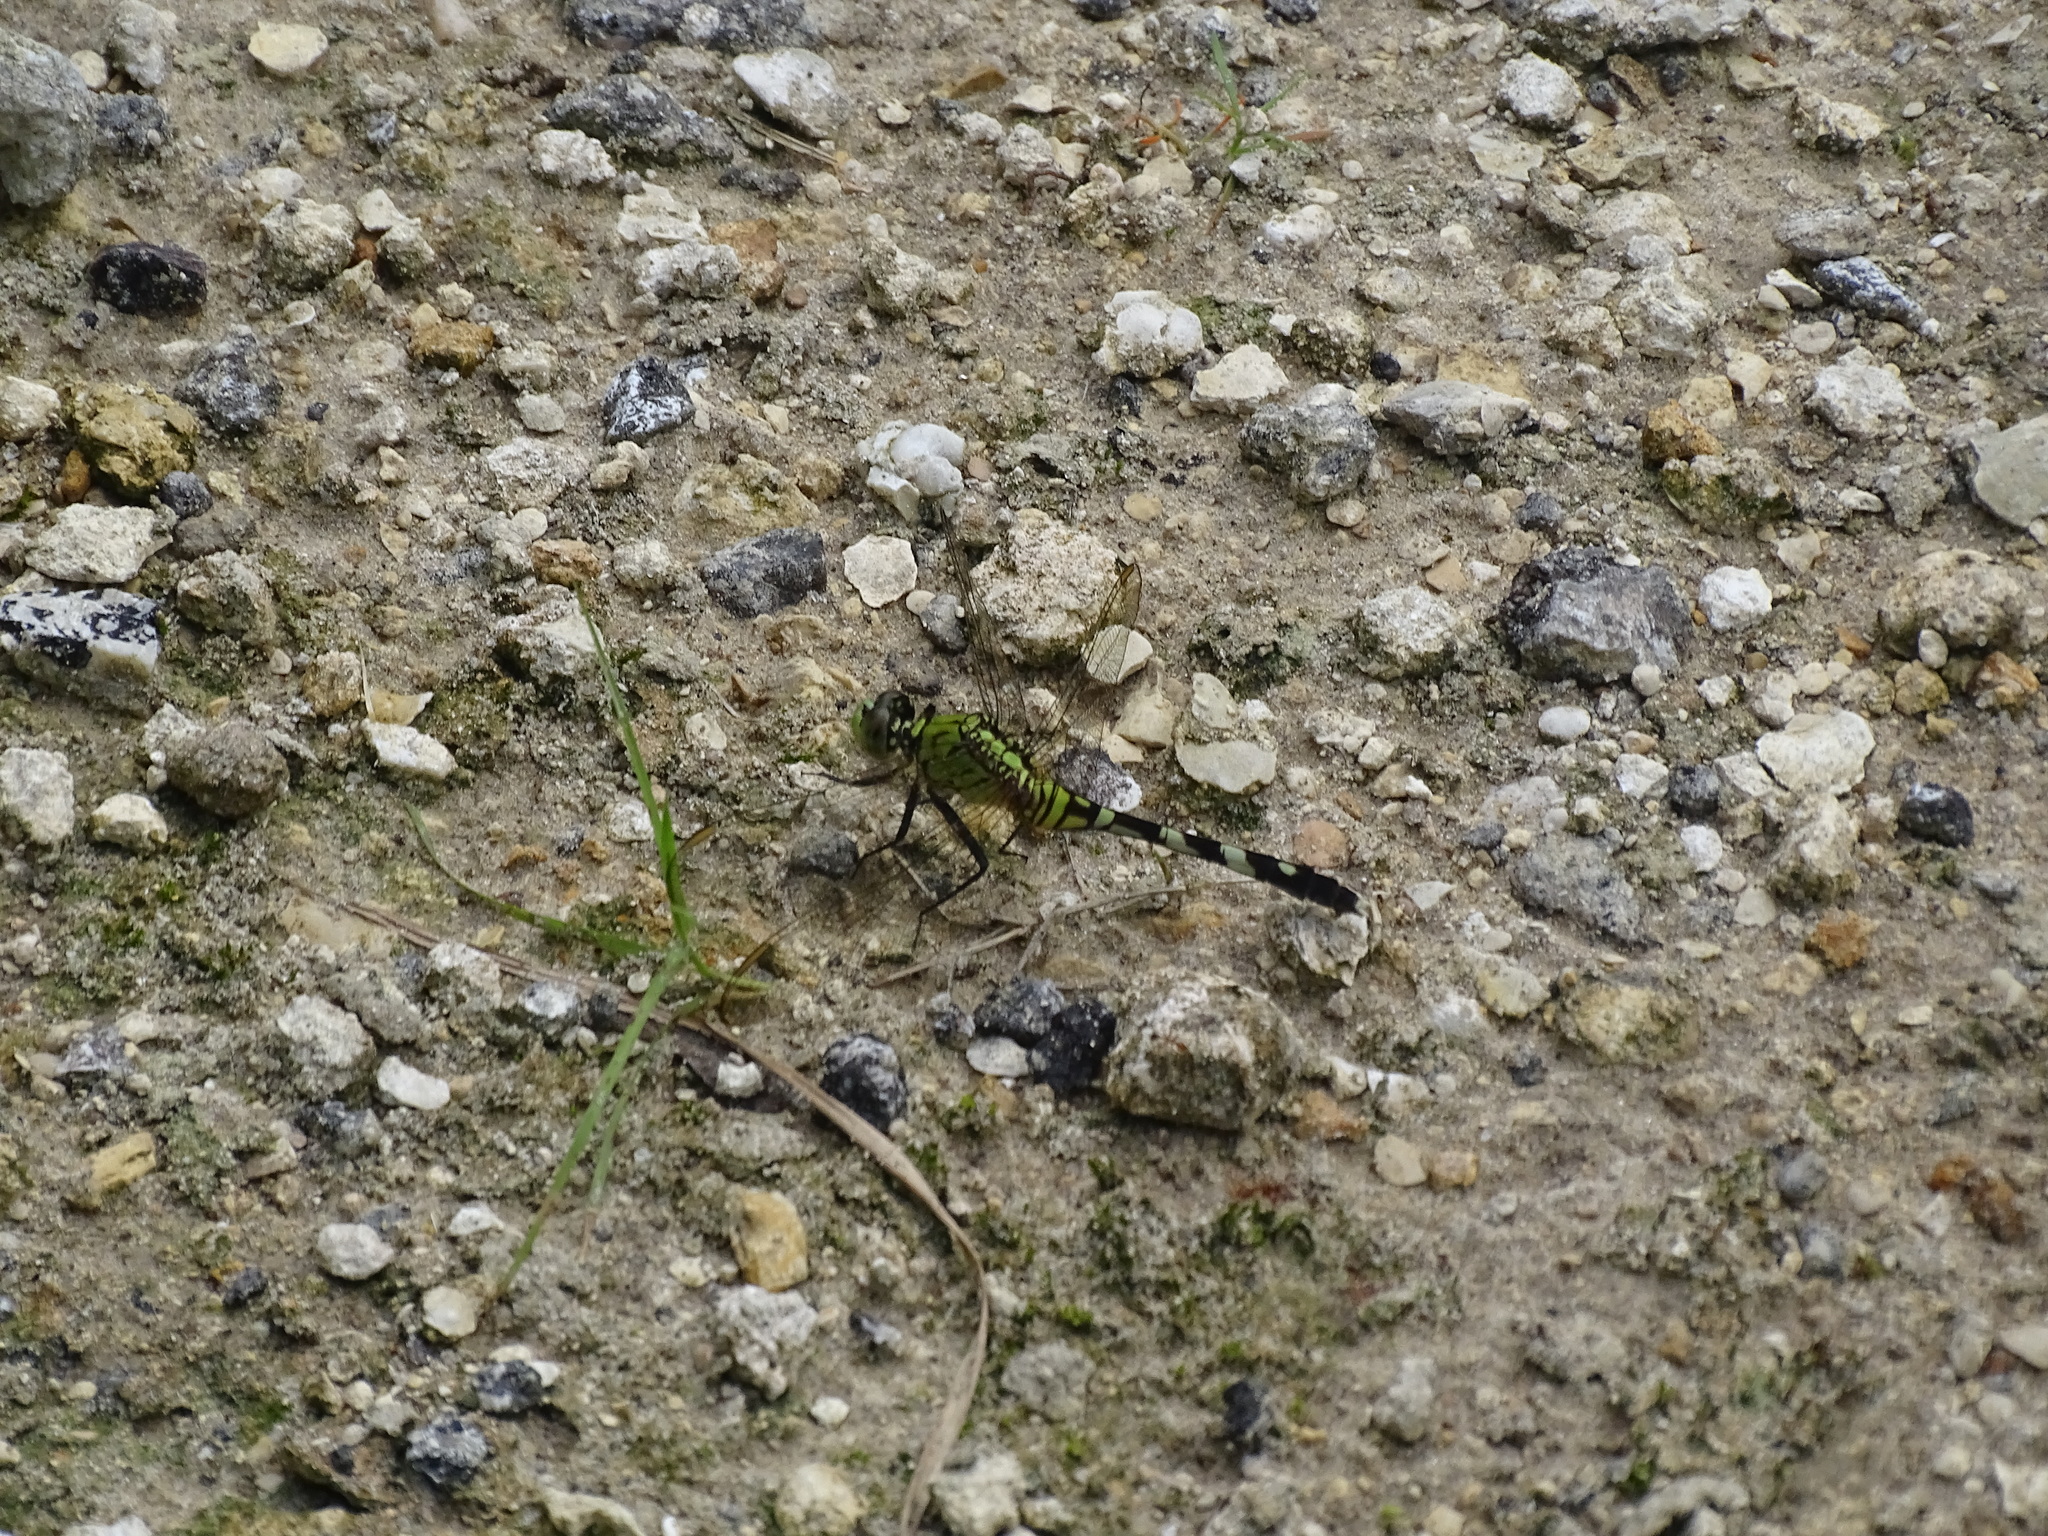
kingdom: Animalia
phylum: Arthropoda
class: Insecta
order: Odonata
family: Libellulidae
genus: Erythemis
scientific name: Erythemis simplicicollis
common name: Eastern pondhawk
